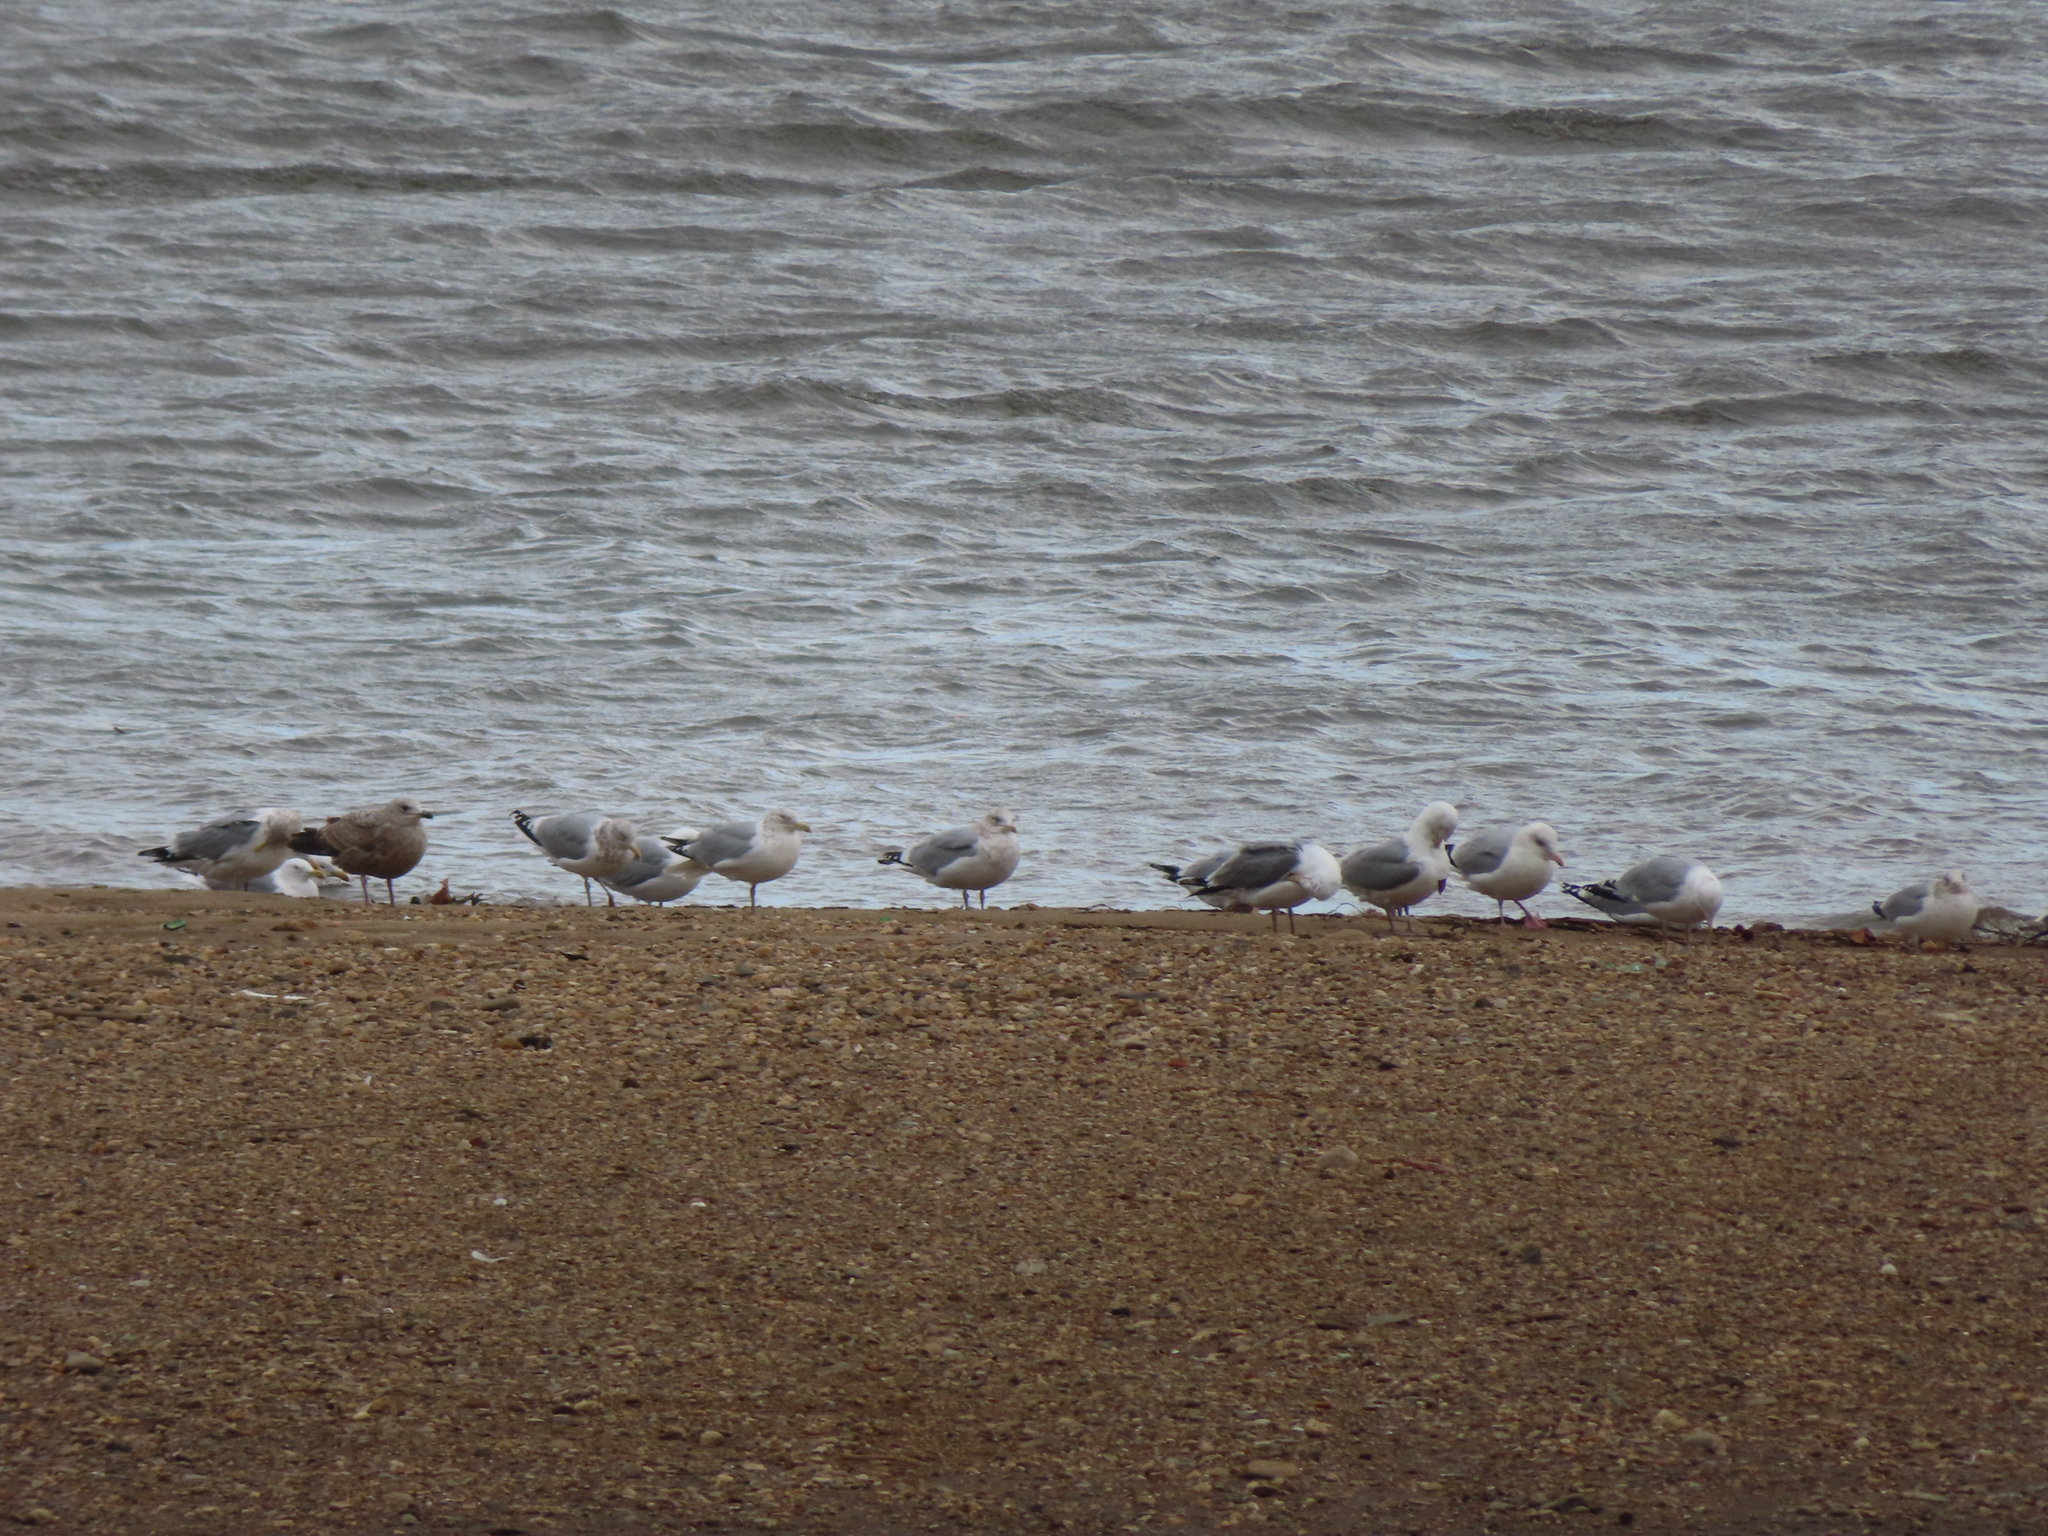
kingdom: Animalia
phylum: Chordata
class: Aves
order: Charadriiformes
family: Laridae
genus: Larus
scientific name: Larus argentatus
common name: Herring gull
